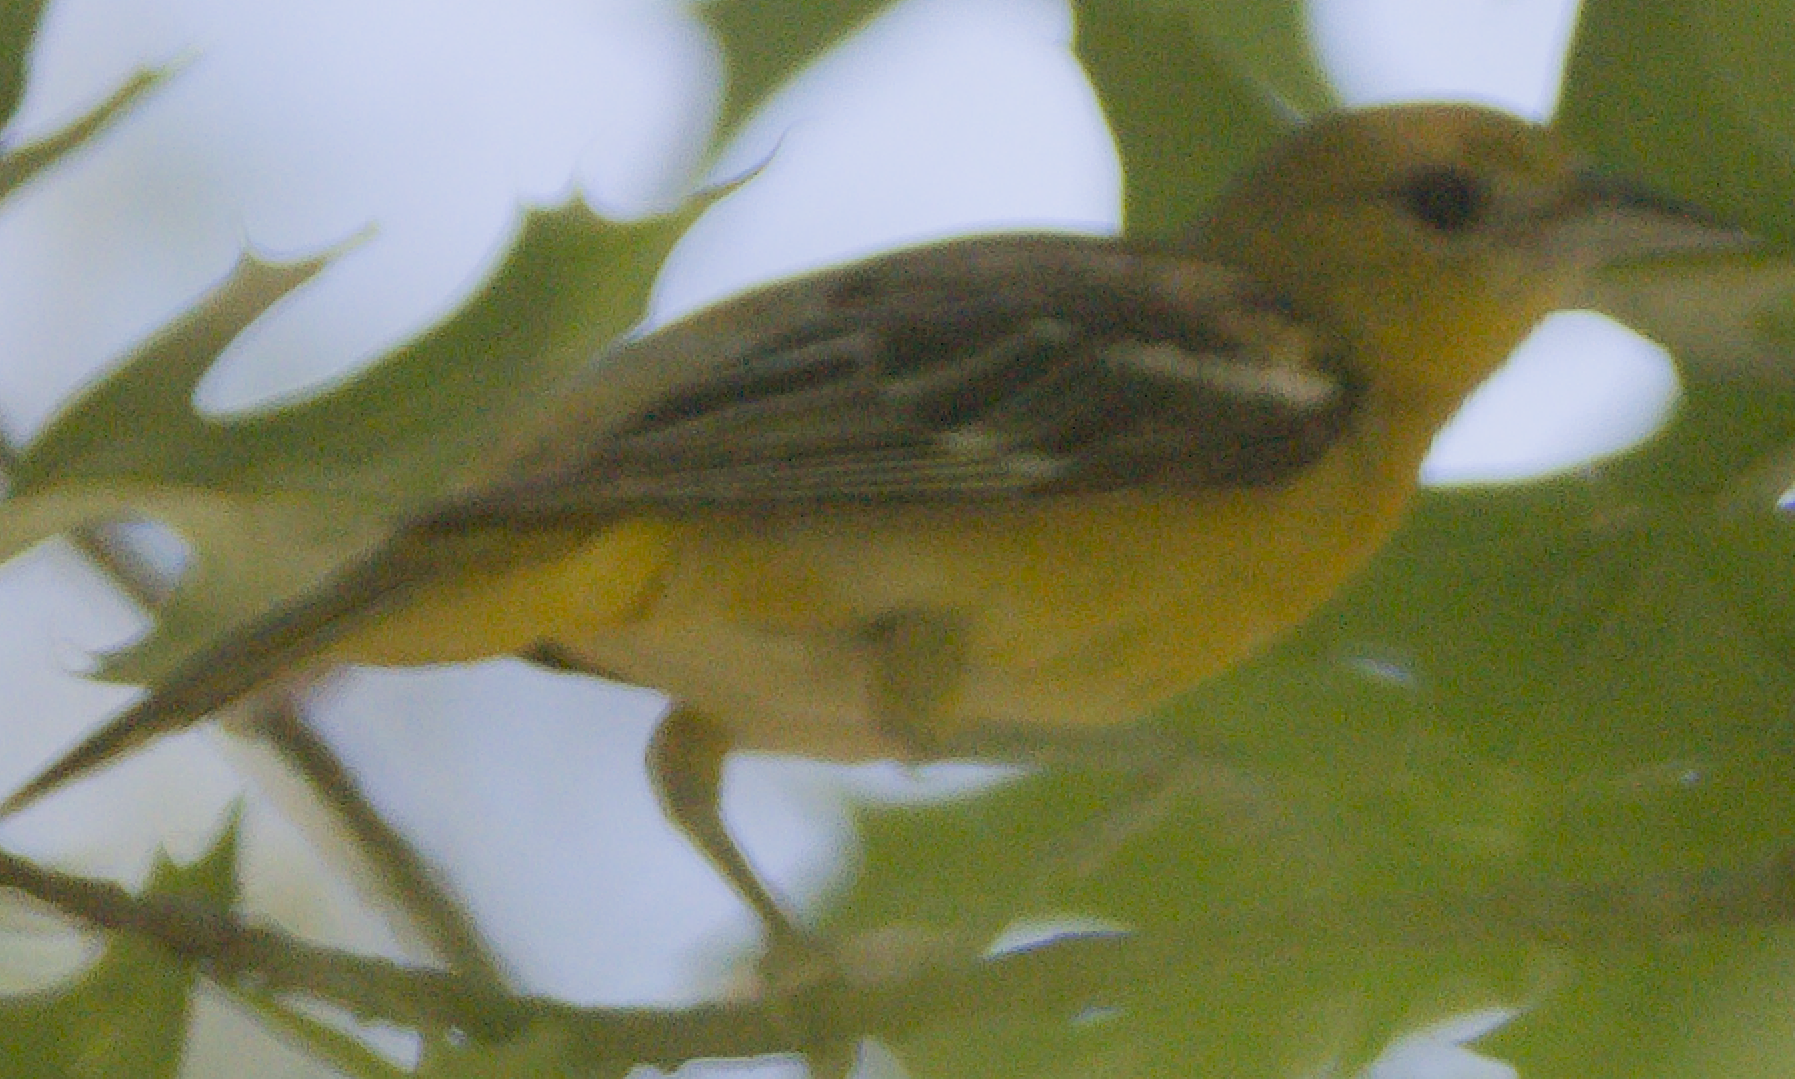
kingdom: Animalia
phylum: Chordata
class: Aves
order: Passeriformes
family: Icteridae
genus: Icterus
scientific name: Icterus galbula
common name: Baltimore oriole
